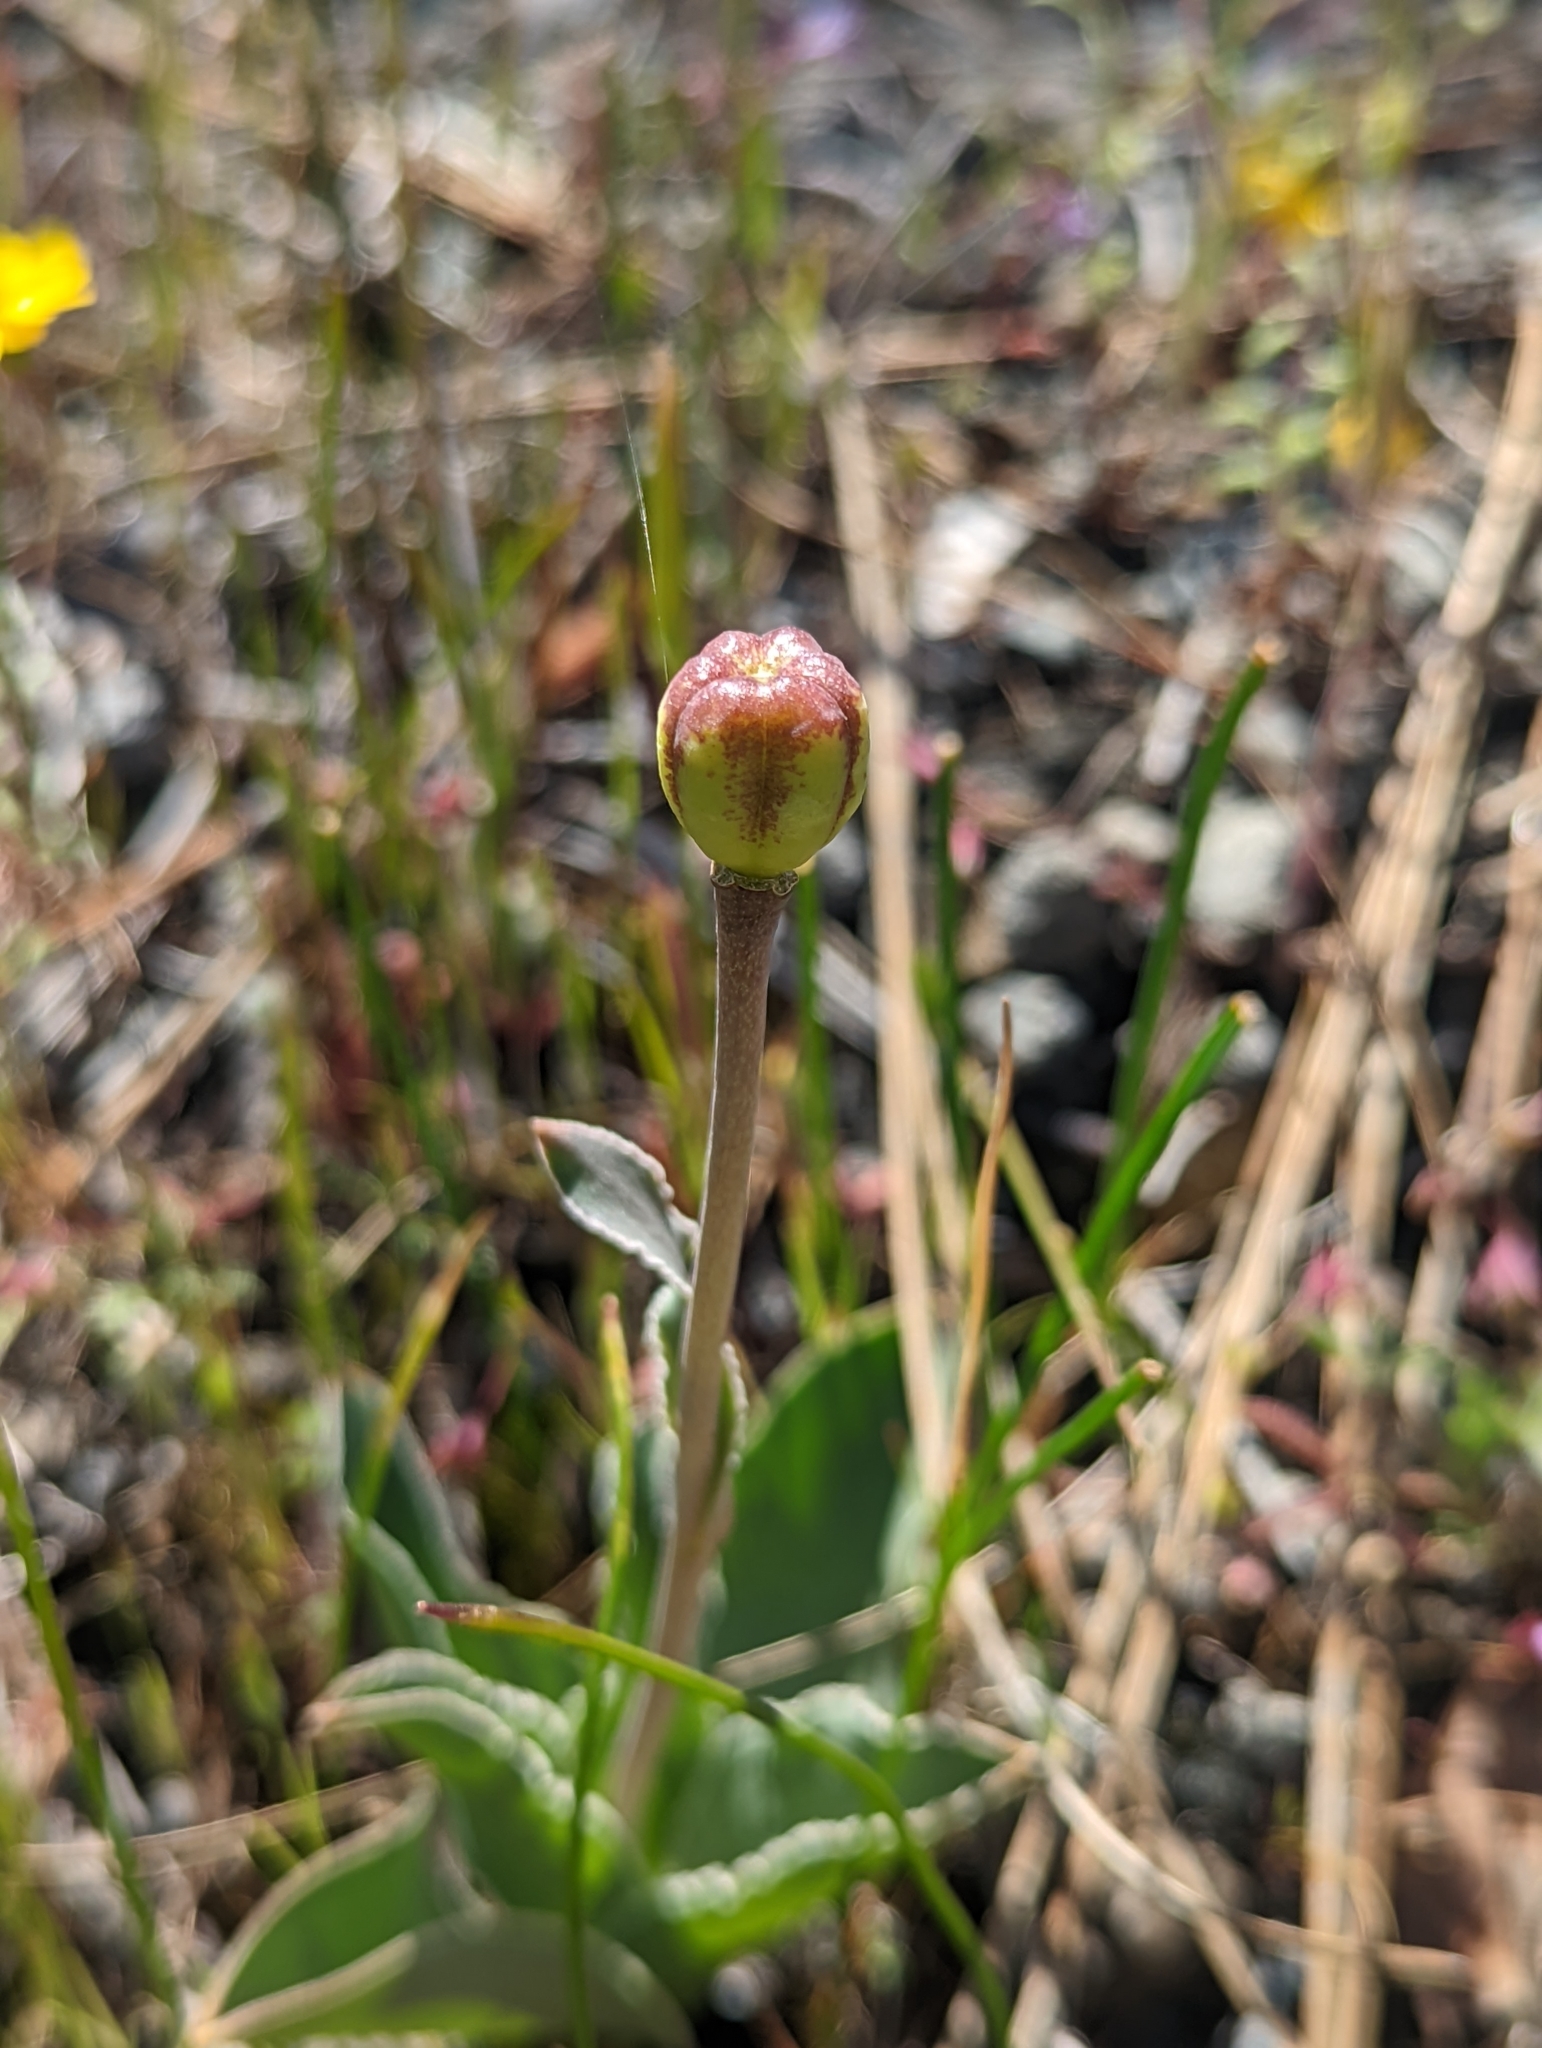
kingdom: Plantae
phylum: Tracheophyta
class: Liliopsida
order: Liliales
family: Liliaceae
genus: Fritillaria
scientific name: Fritillaria purdyi
